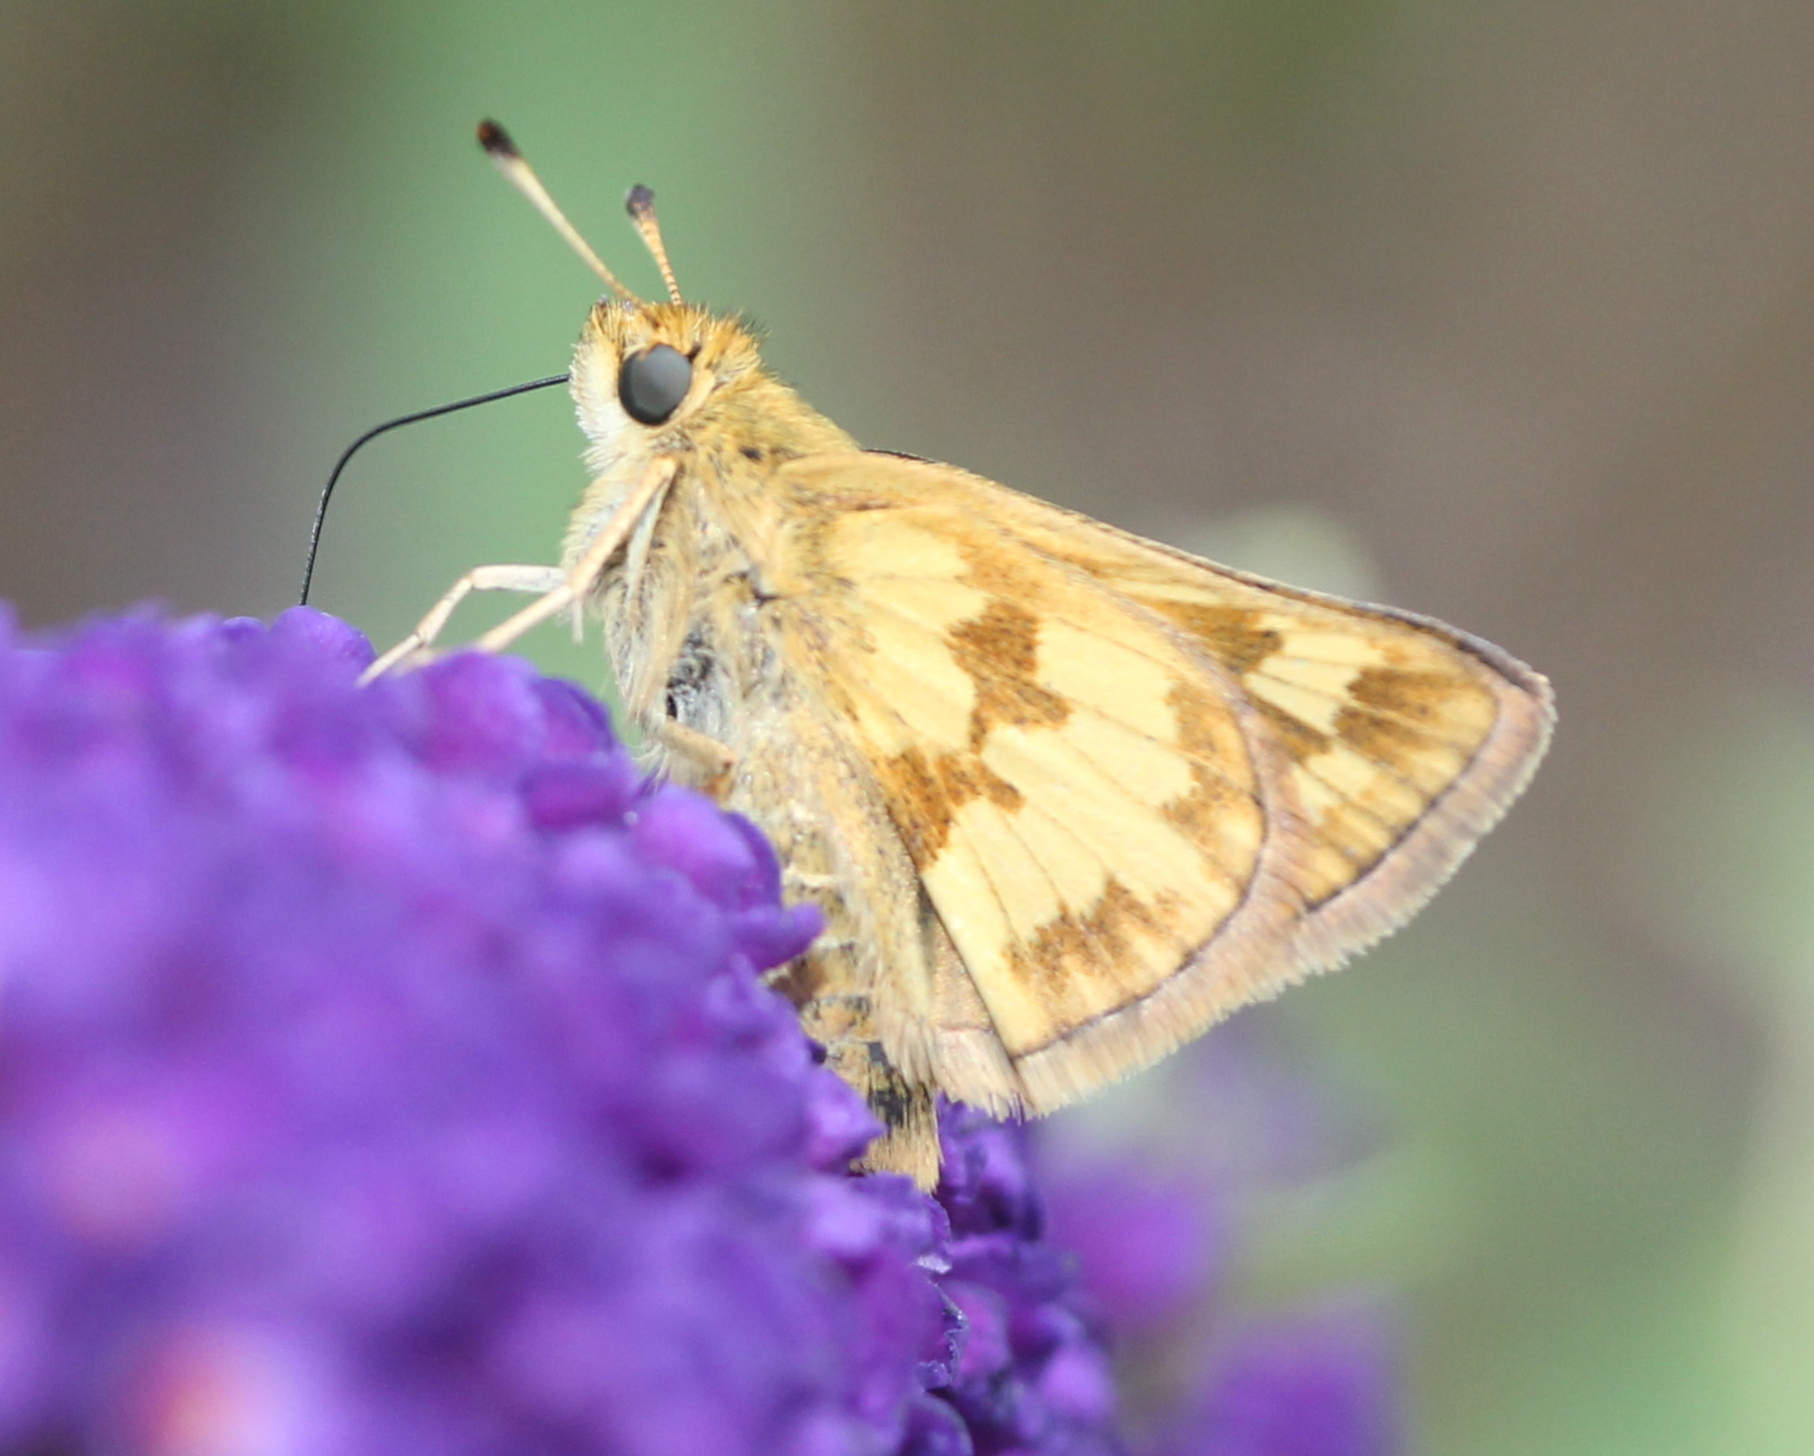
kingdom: Animalia
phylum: Arthropoda
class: Insecta
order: Lepidoptera
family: Hesperiidae
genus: Polites
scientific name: Polites coras
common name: Peck's skipper
